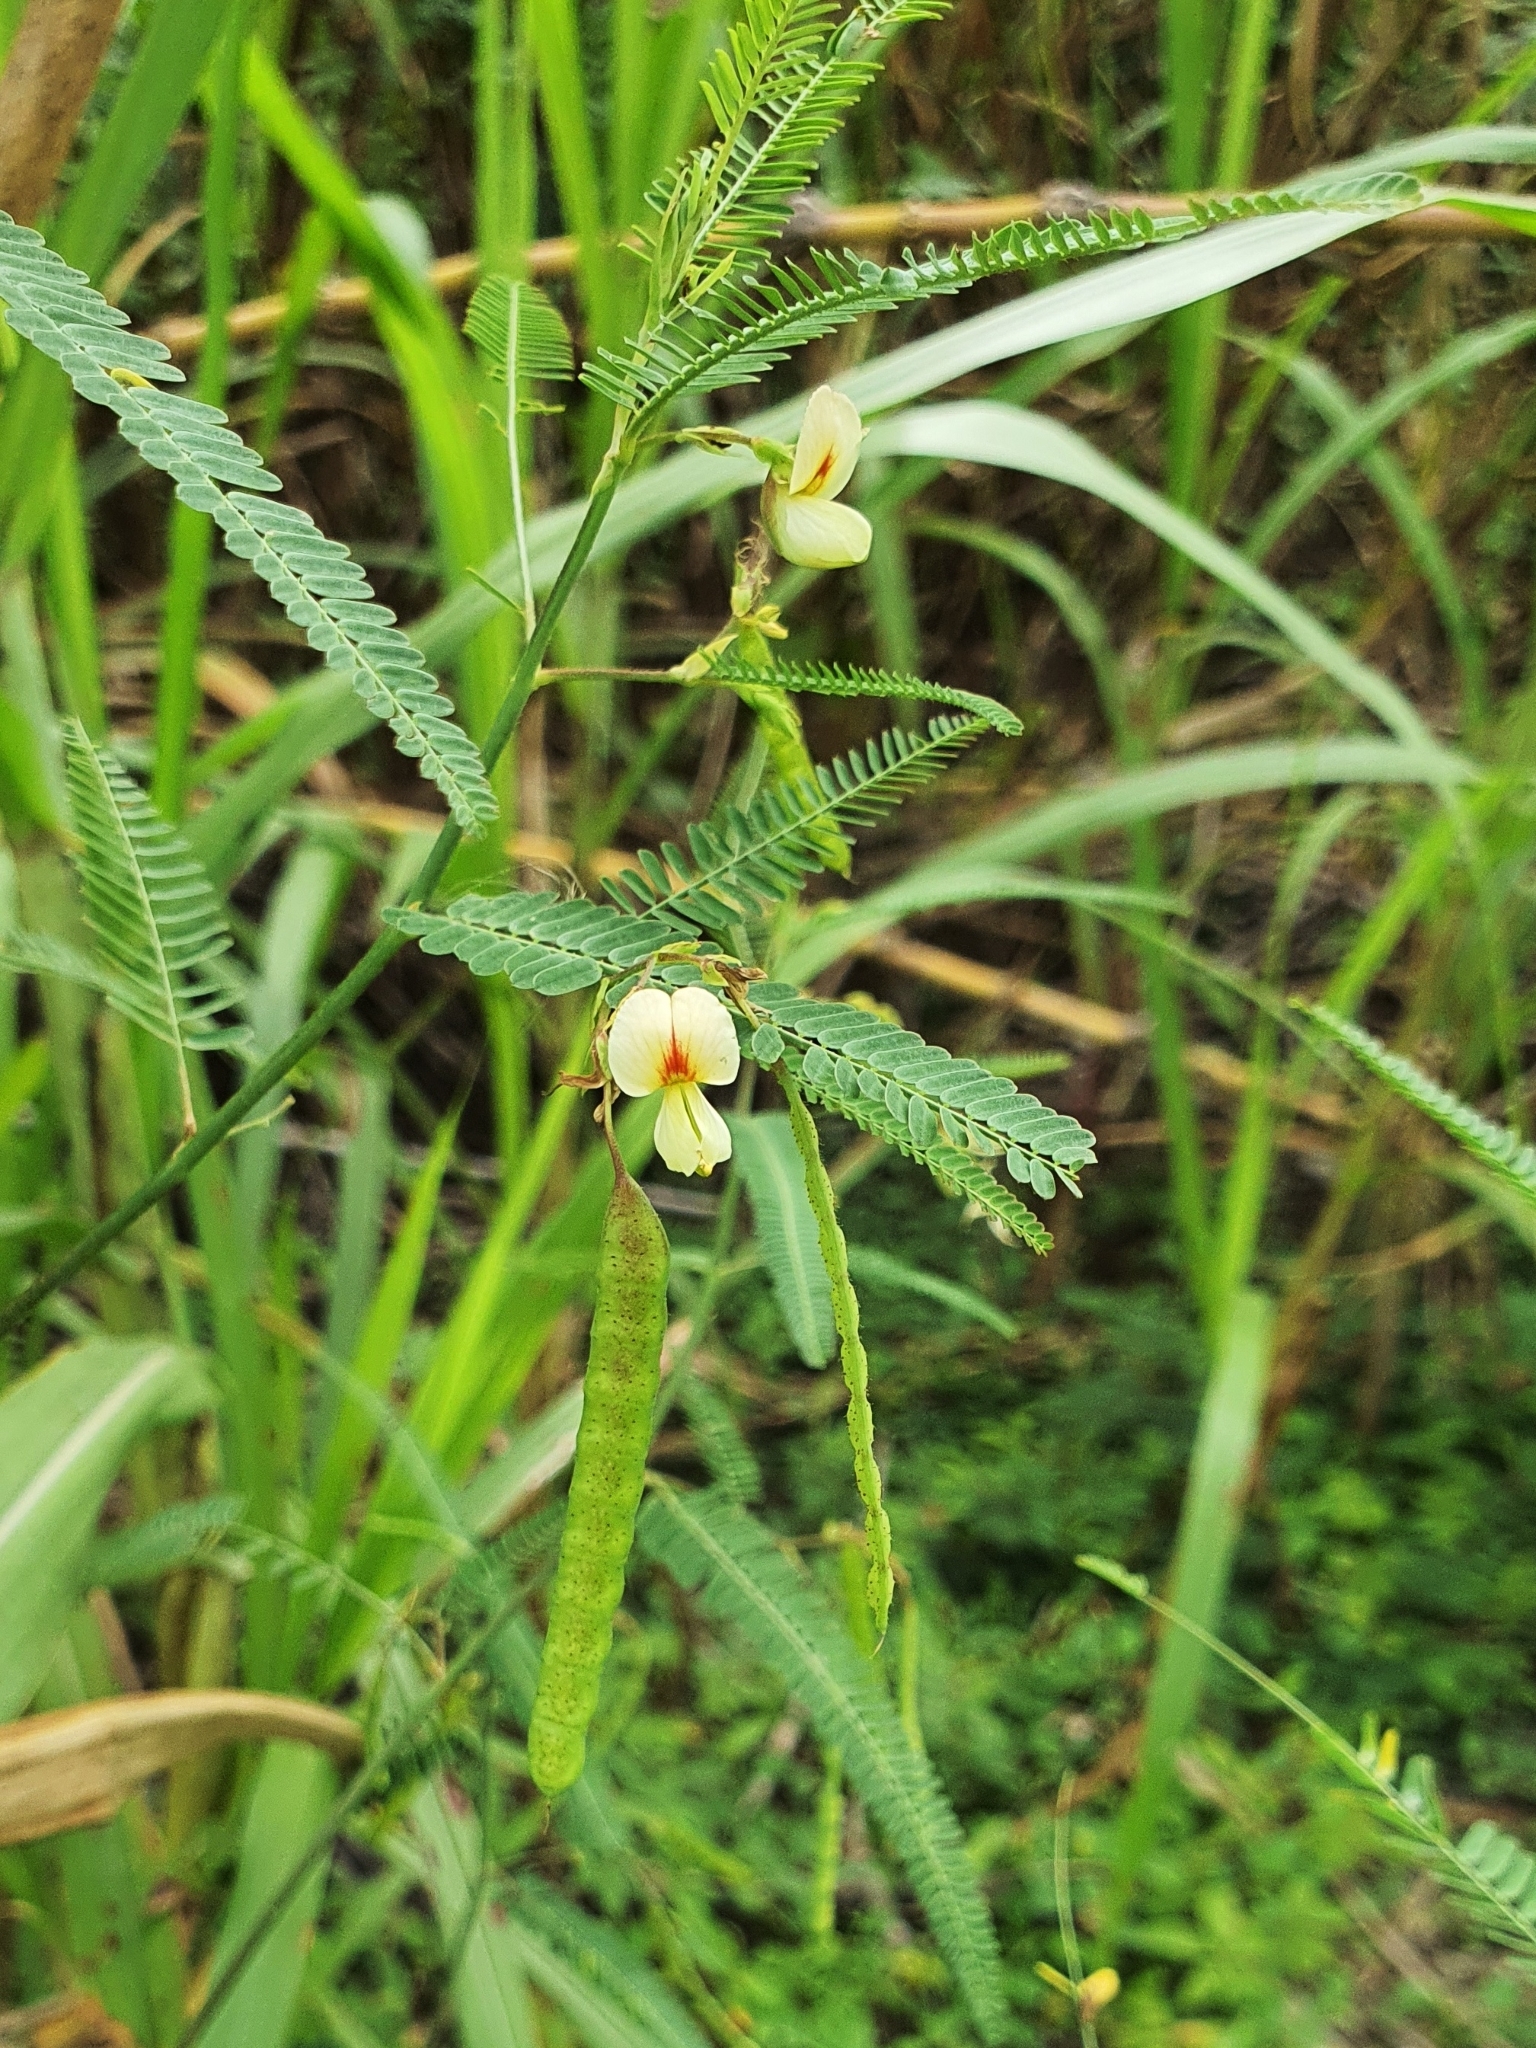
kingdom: Plantae
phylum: Tracheophyta
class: Magnoliopsida
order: Fabales
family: Fabaceae
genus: Aeschynomene
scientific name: Aeschynomene indica
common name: Indian jointvetch
